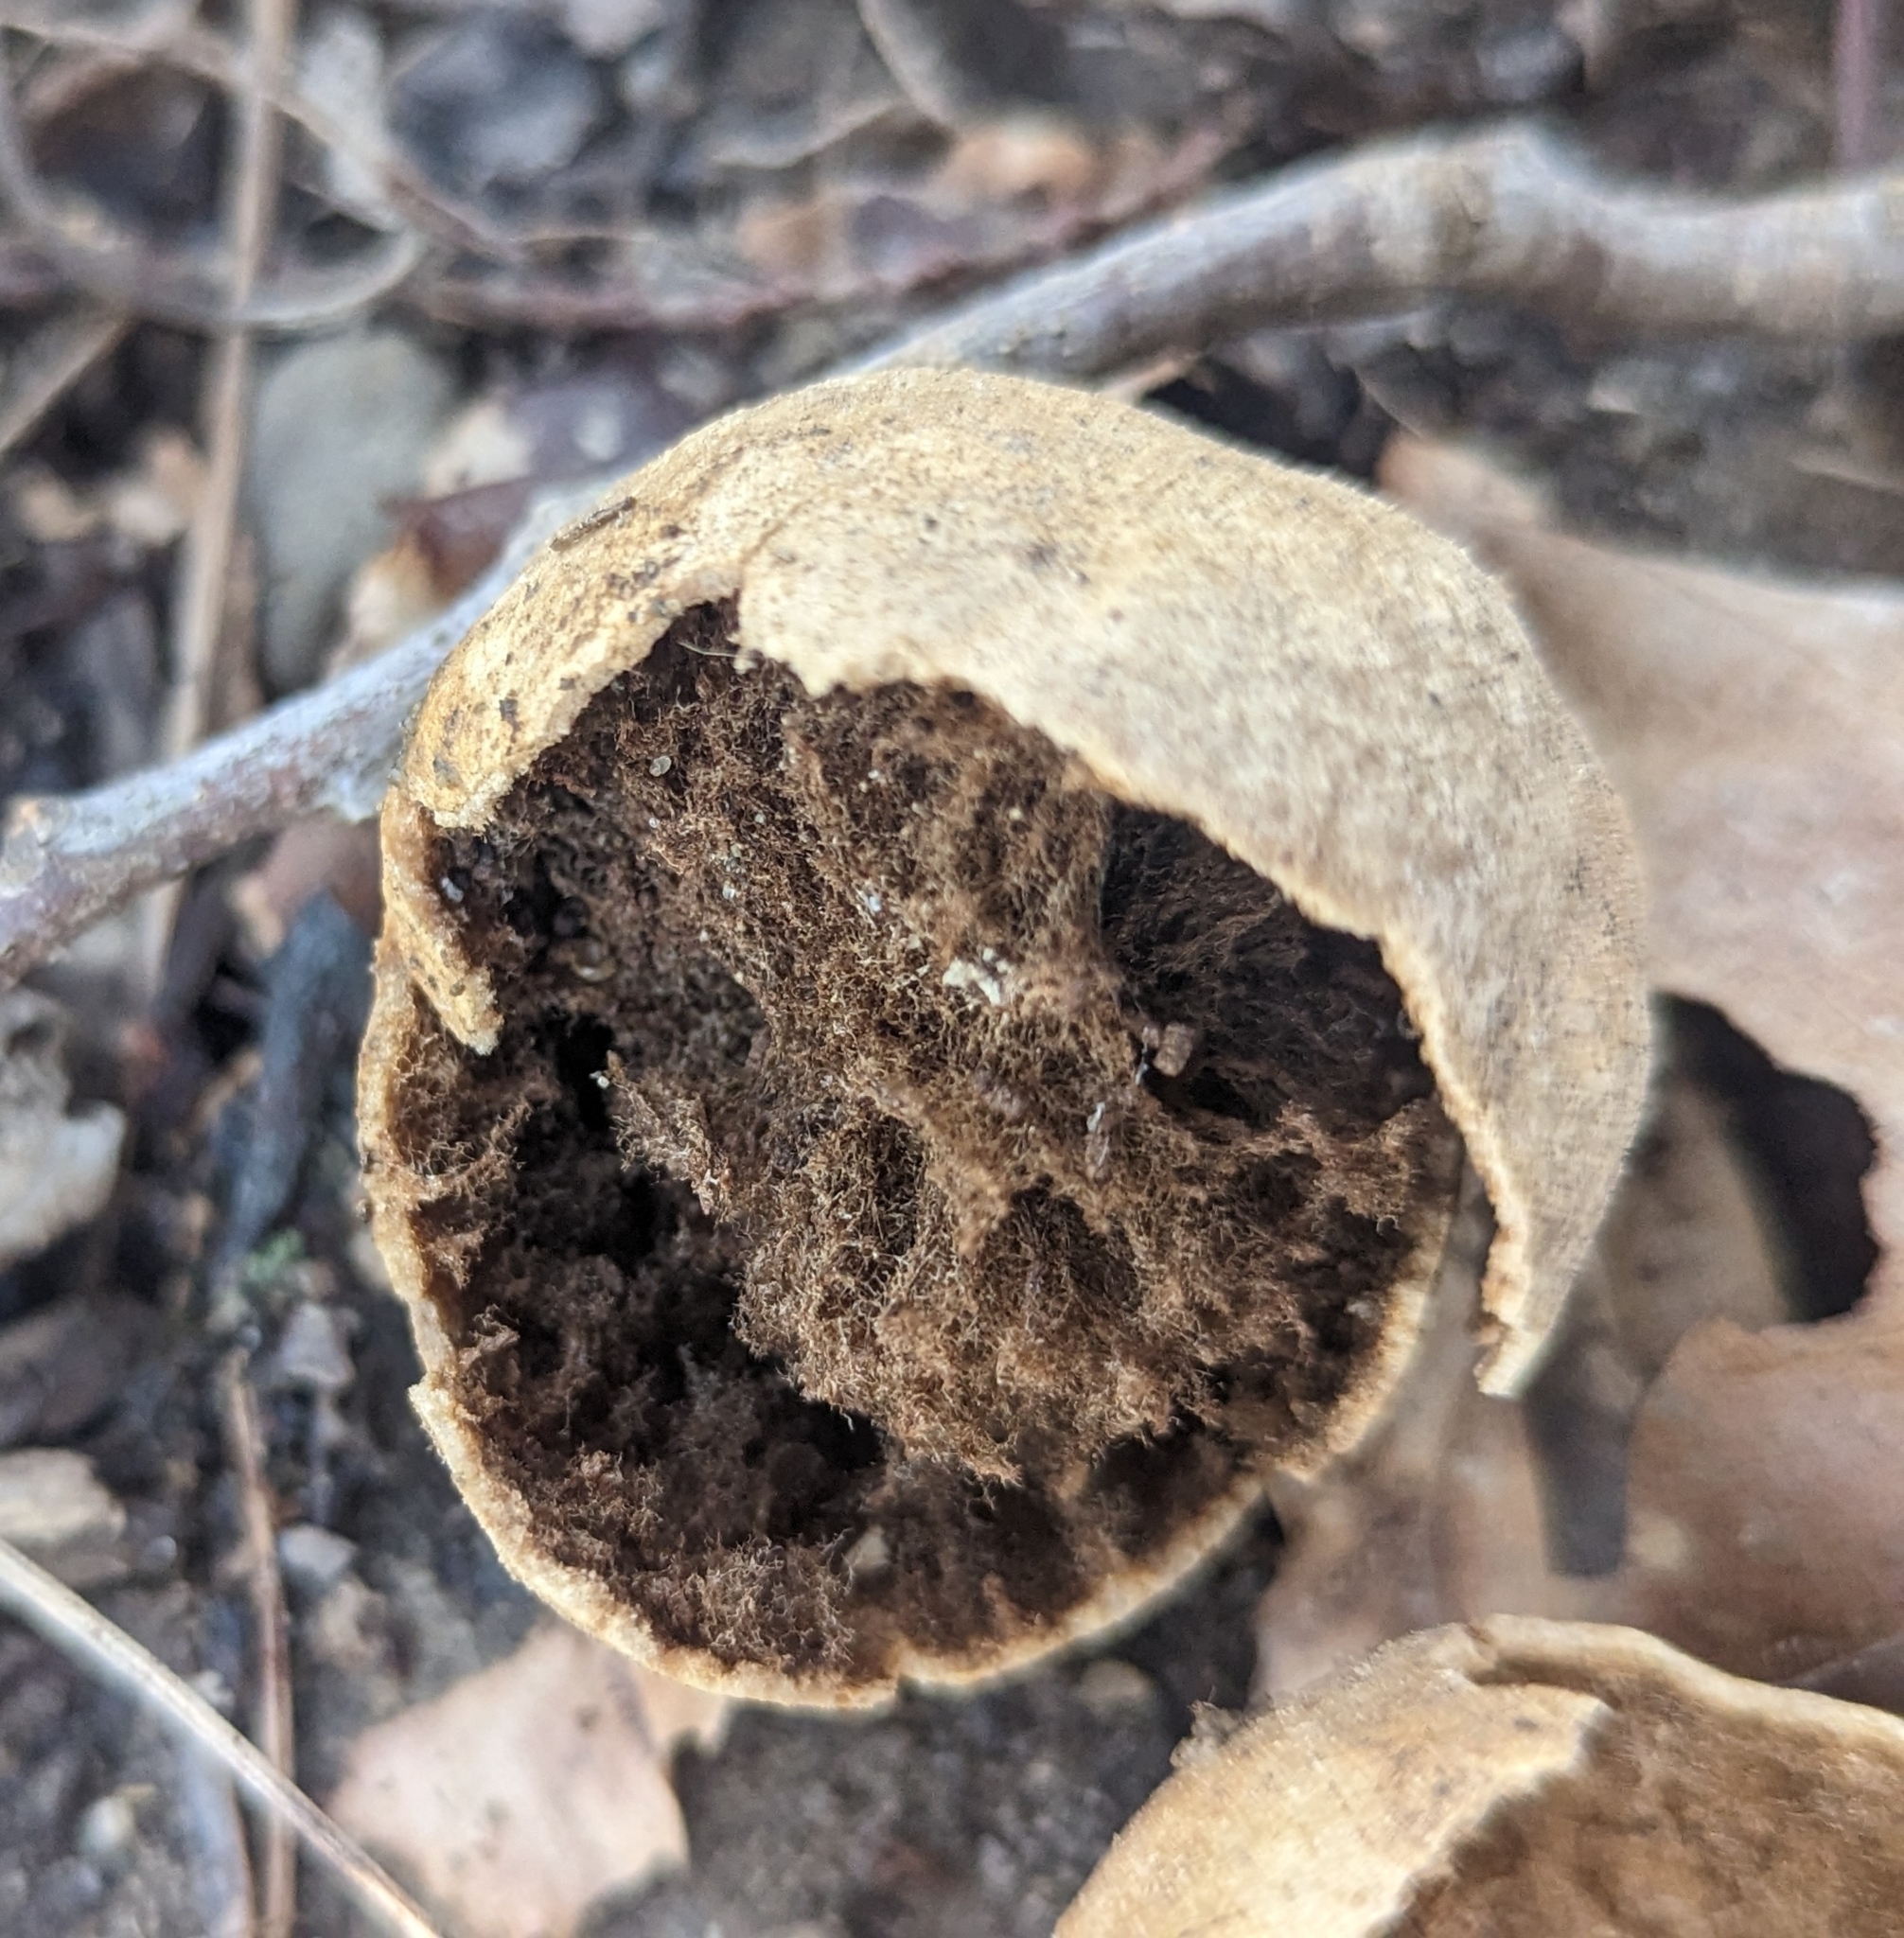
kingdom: Animalia
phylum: Arthropoda
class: Insecta
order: Hymenoptera
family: Cynipidae
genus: Amphibolips
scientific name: Amphibolips
